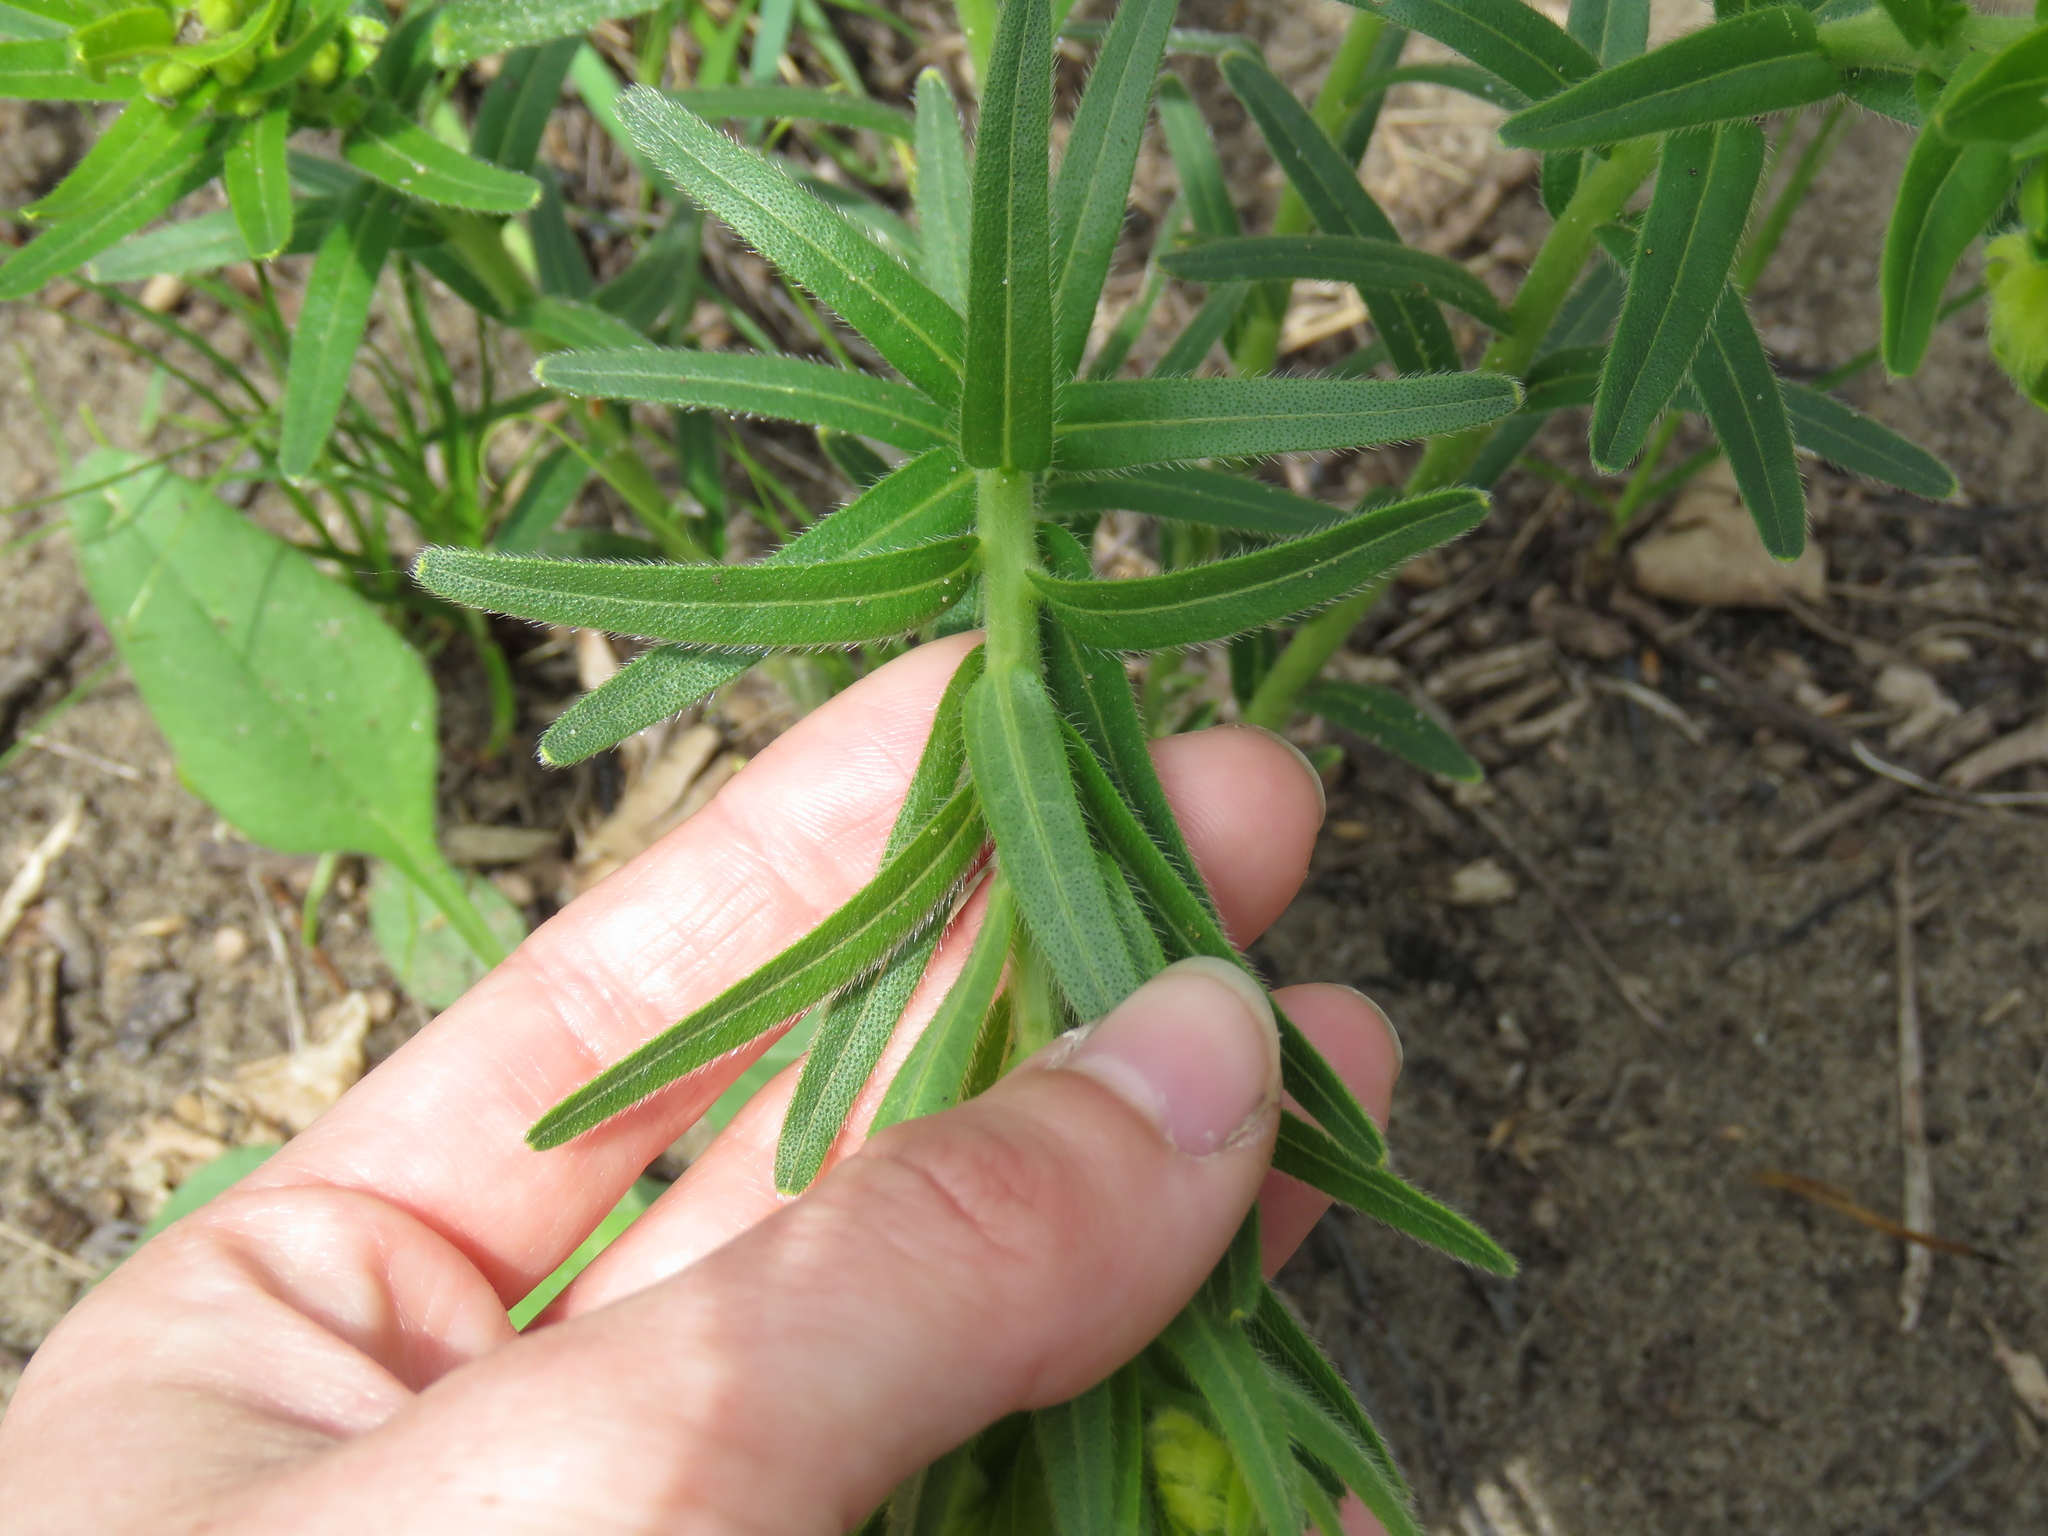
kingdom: Plantae
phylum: Tracheophyta
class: Magnoliopsida
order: Boraginales
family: Boraginaceae
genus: Lithospermum
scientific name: Lithospermum caroliniense
